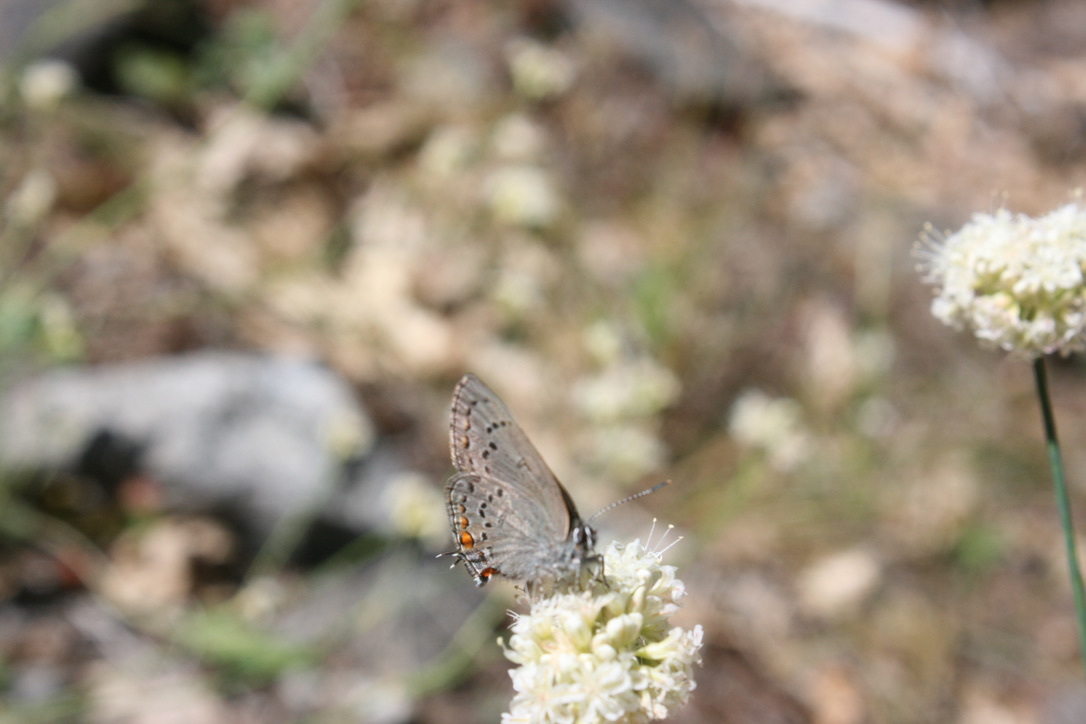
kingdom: Animalia
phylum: Arthropoda
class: Insecta
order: Lepidoptera
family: Lycaenidae
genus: Strymon
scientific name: Strymon acadica
